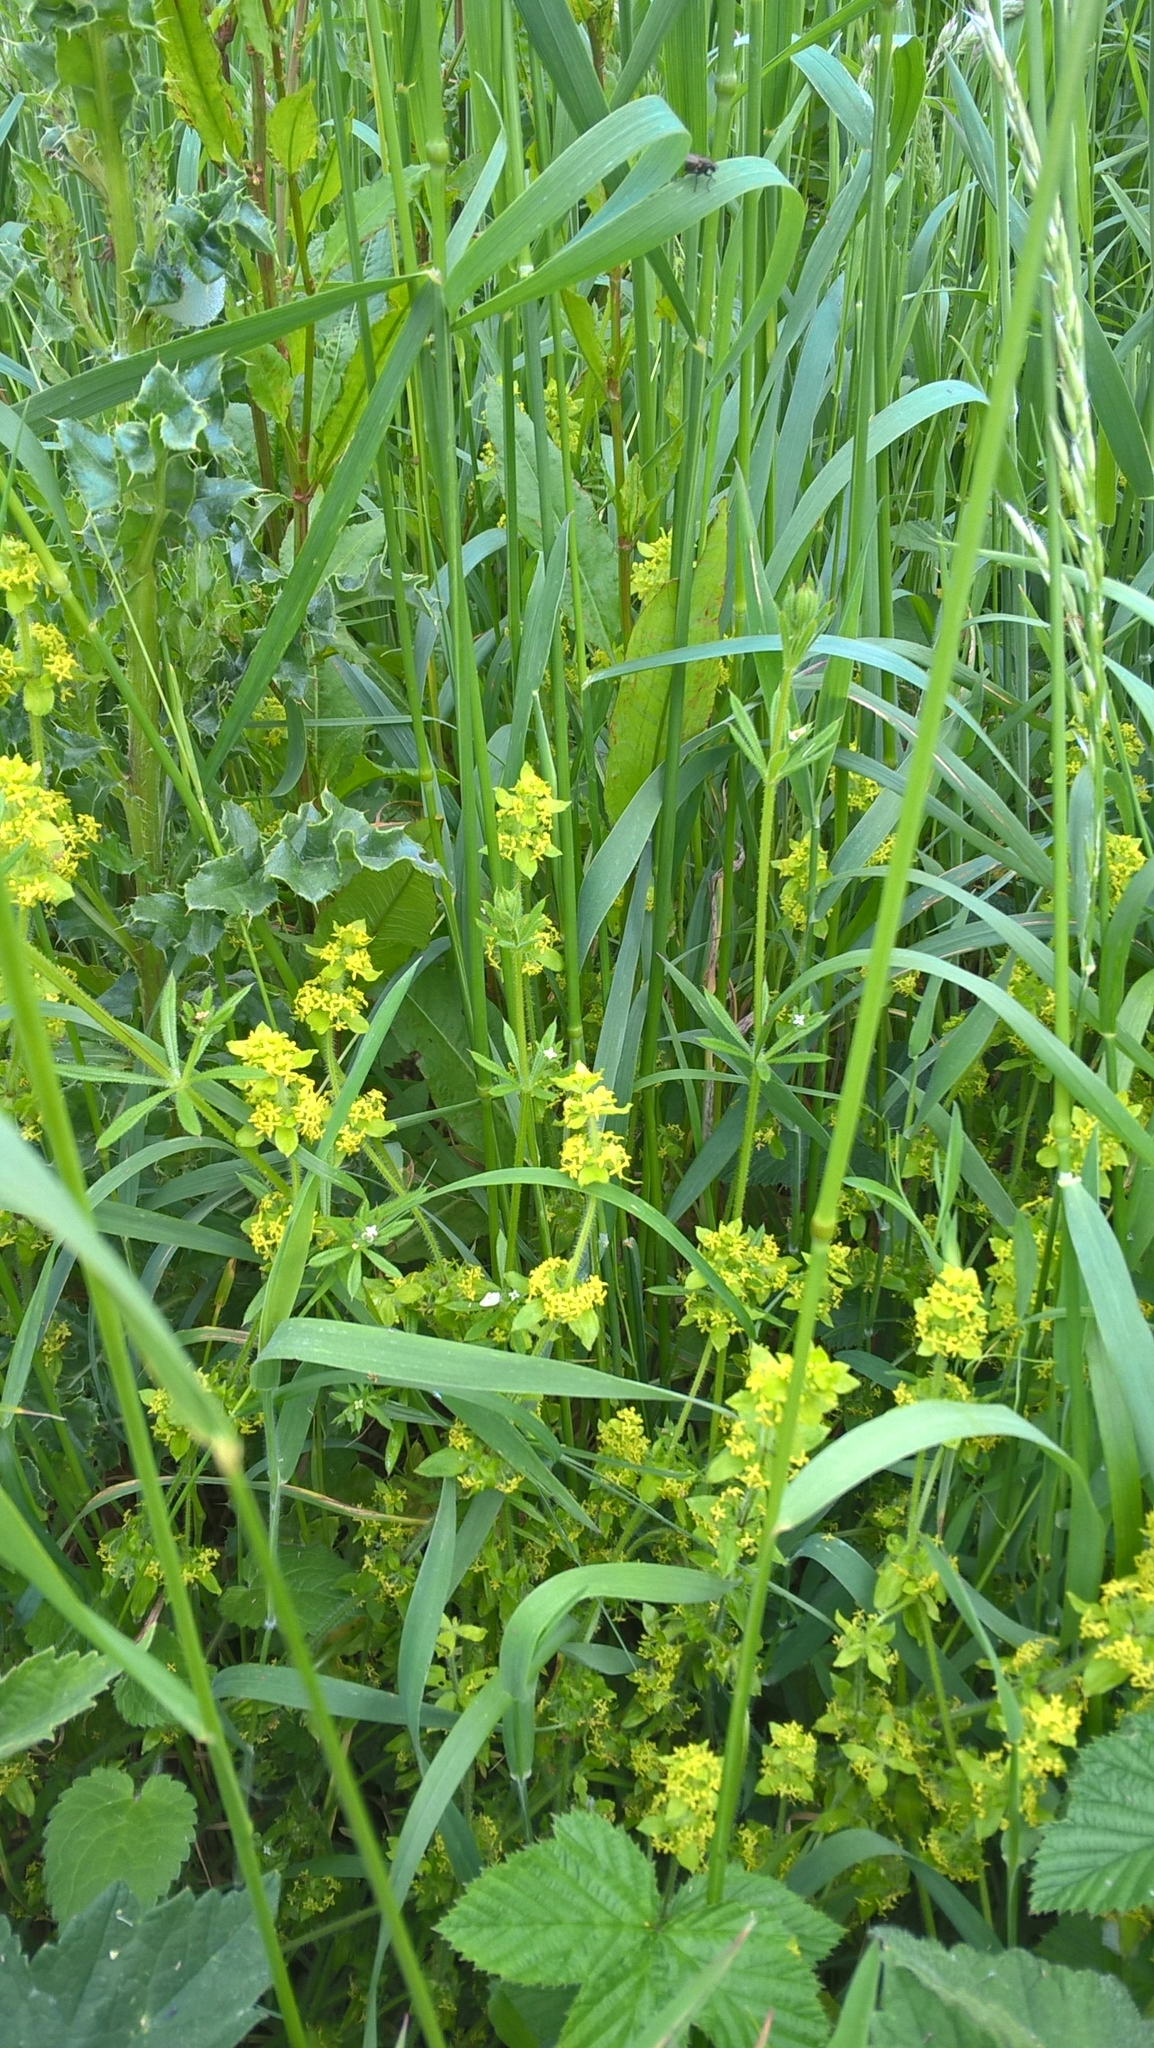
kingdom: Plantae
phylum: Tracheophyta
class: Magnoliopsida
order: Gentianales
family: Rubiaceae
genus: Cruciata
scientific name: Cruciata laevipes
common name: Crosswort
